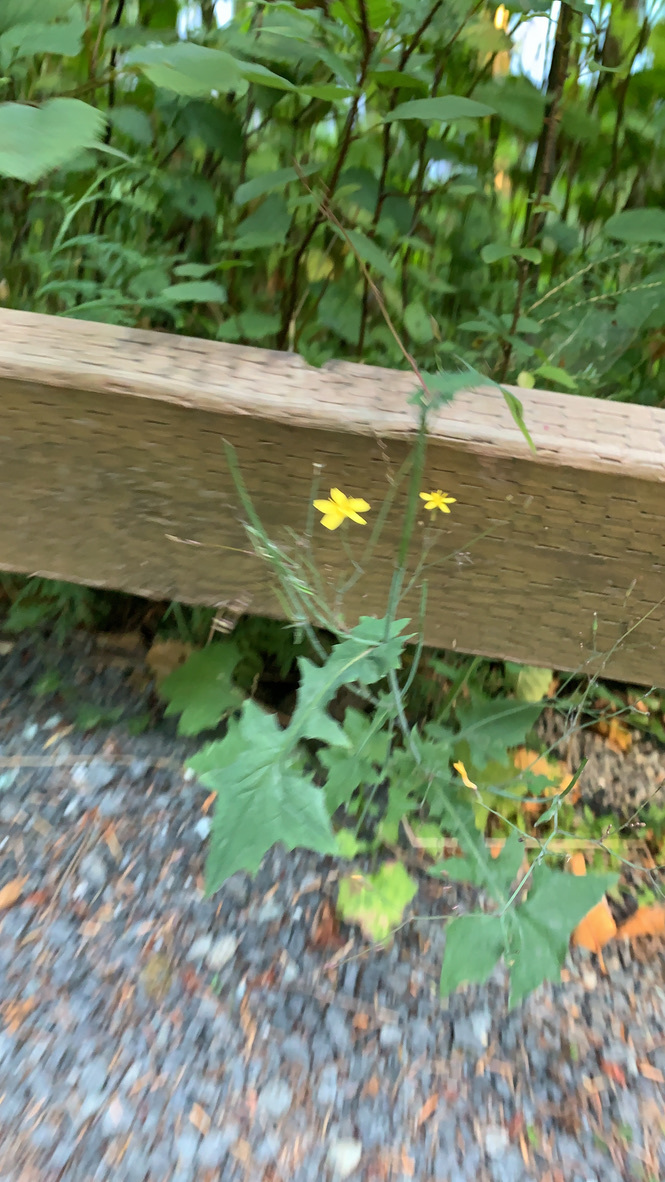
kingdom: Plantae
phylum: Tracheophyta
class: Magnoliopsida
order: Asterales
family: Asteraceae
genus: Mycelis
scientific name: Mycelis muralis
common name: Wall lettuce
